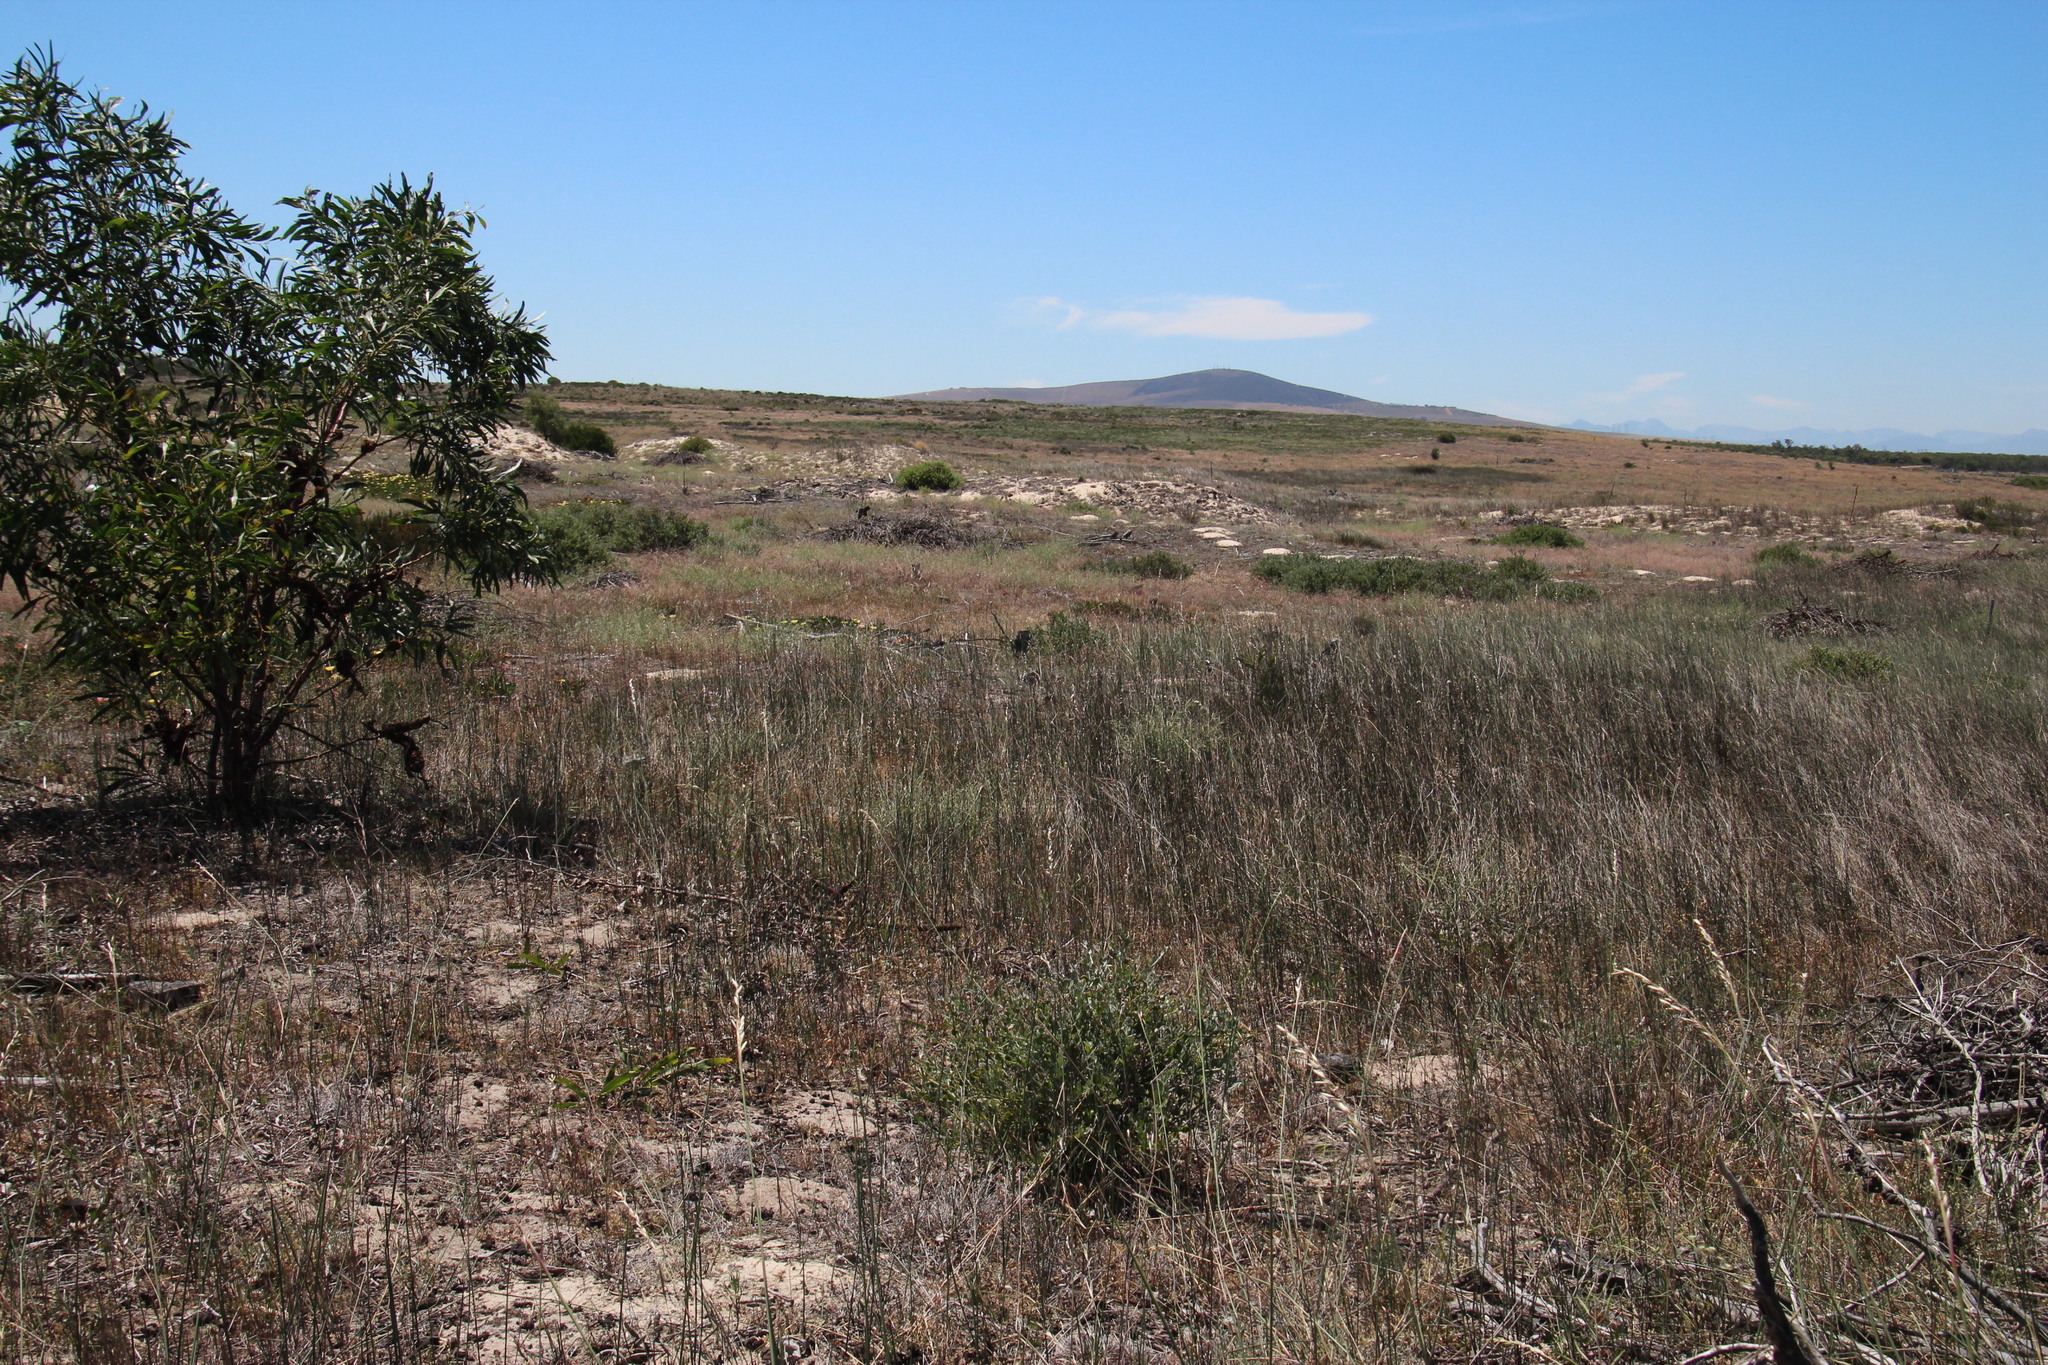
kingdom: Plantae
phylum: Tracheophyta
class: Magnoliopsida
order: Fabales
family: Fabaceae
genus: Acacia
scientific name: Acacia saligna
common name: Orange wattle
